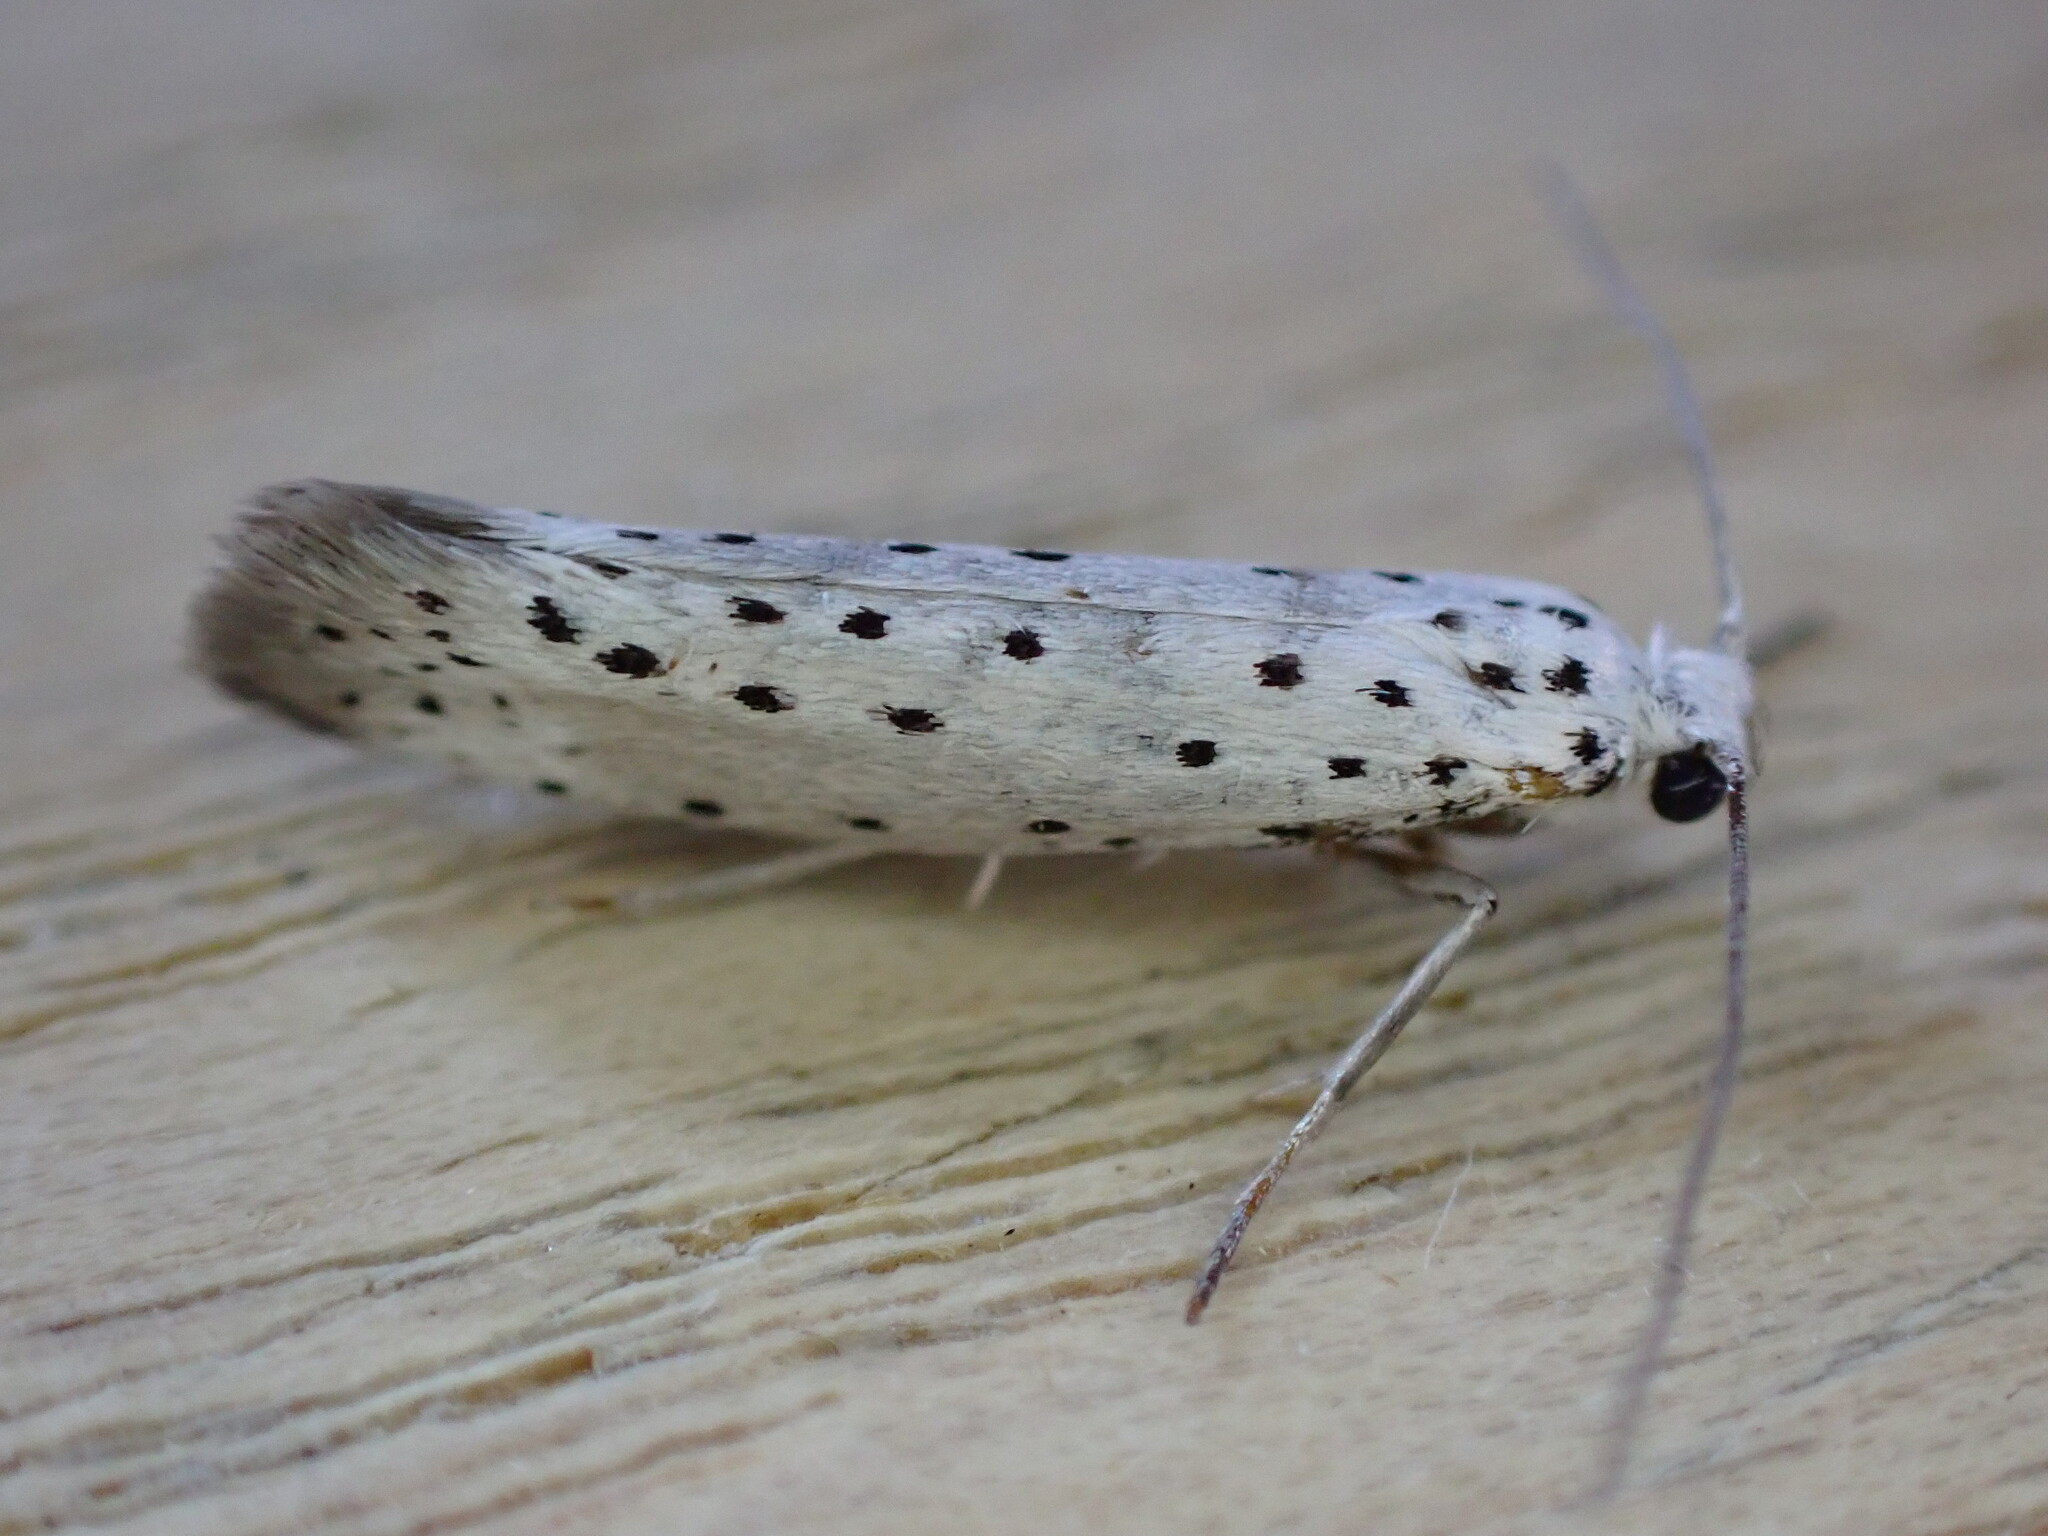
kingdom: Animalia
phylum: Arthropoda
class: Insecta
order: Lepidoptera
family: Yponomeutidae
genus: Yponomeuta
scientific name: Yponomeuta evonymella
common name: Bird-cherry ermine
